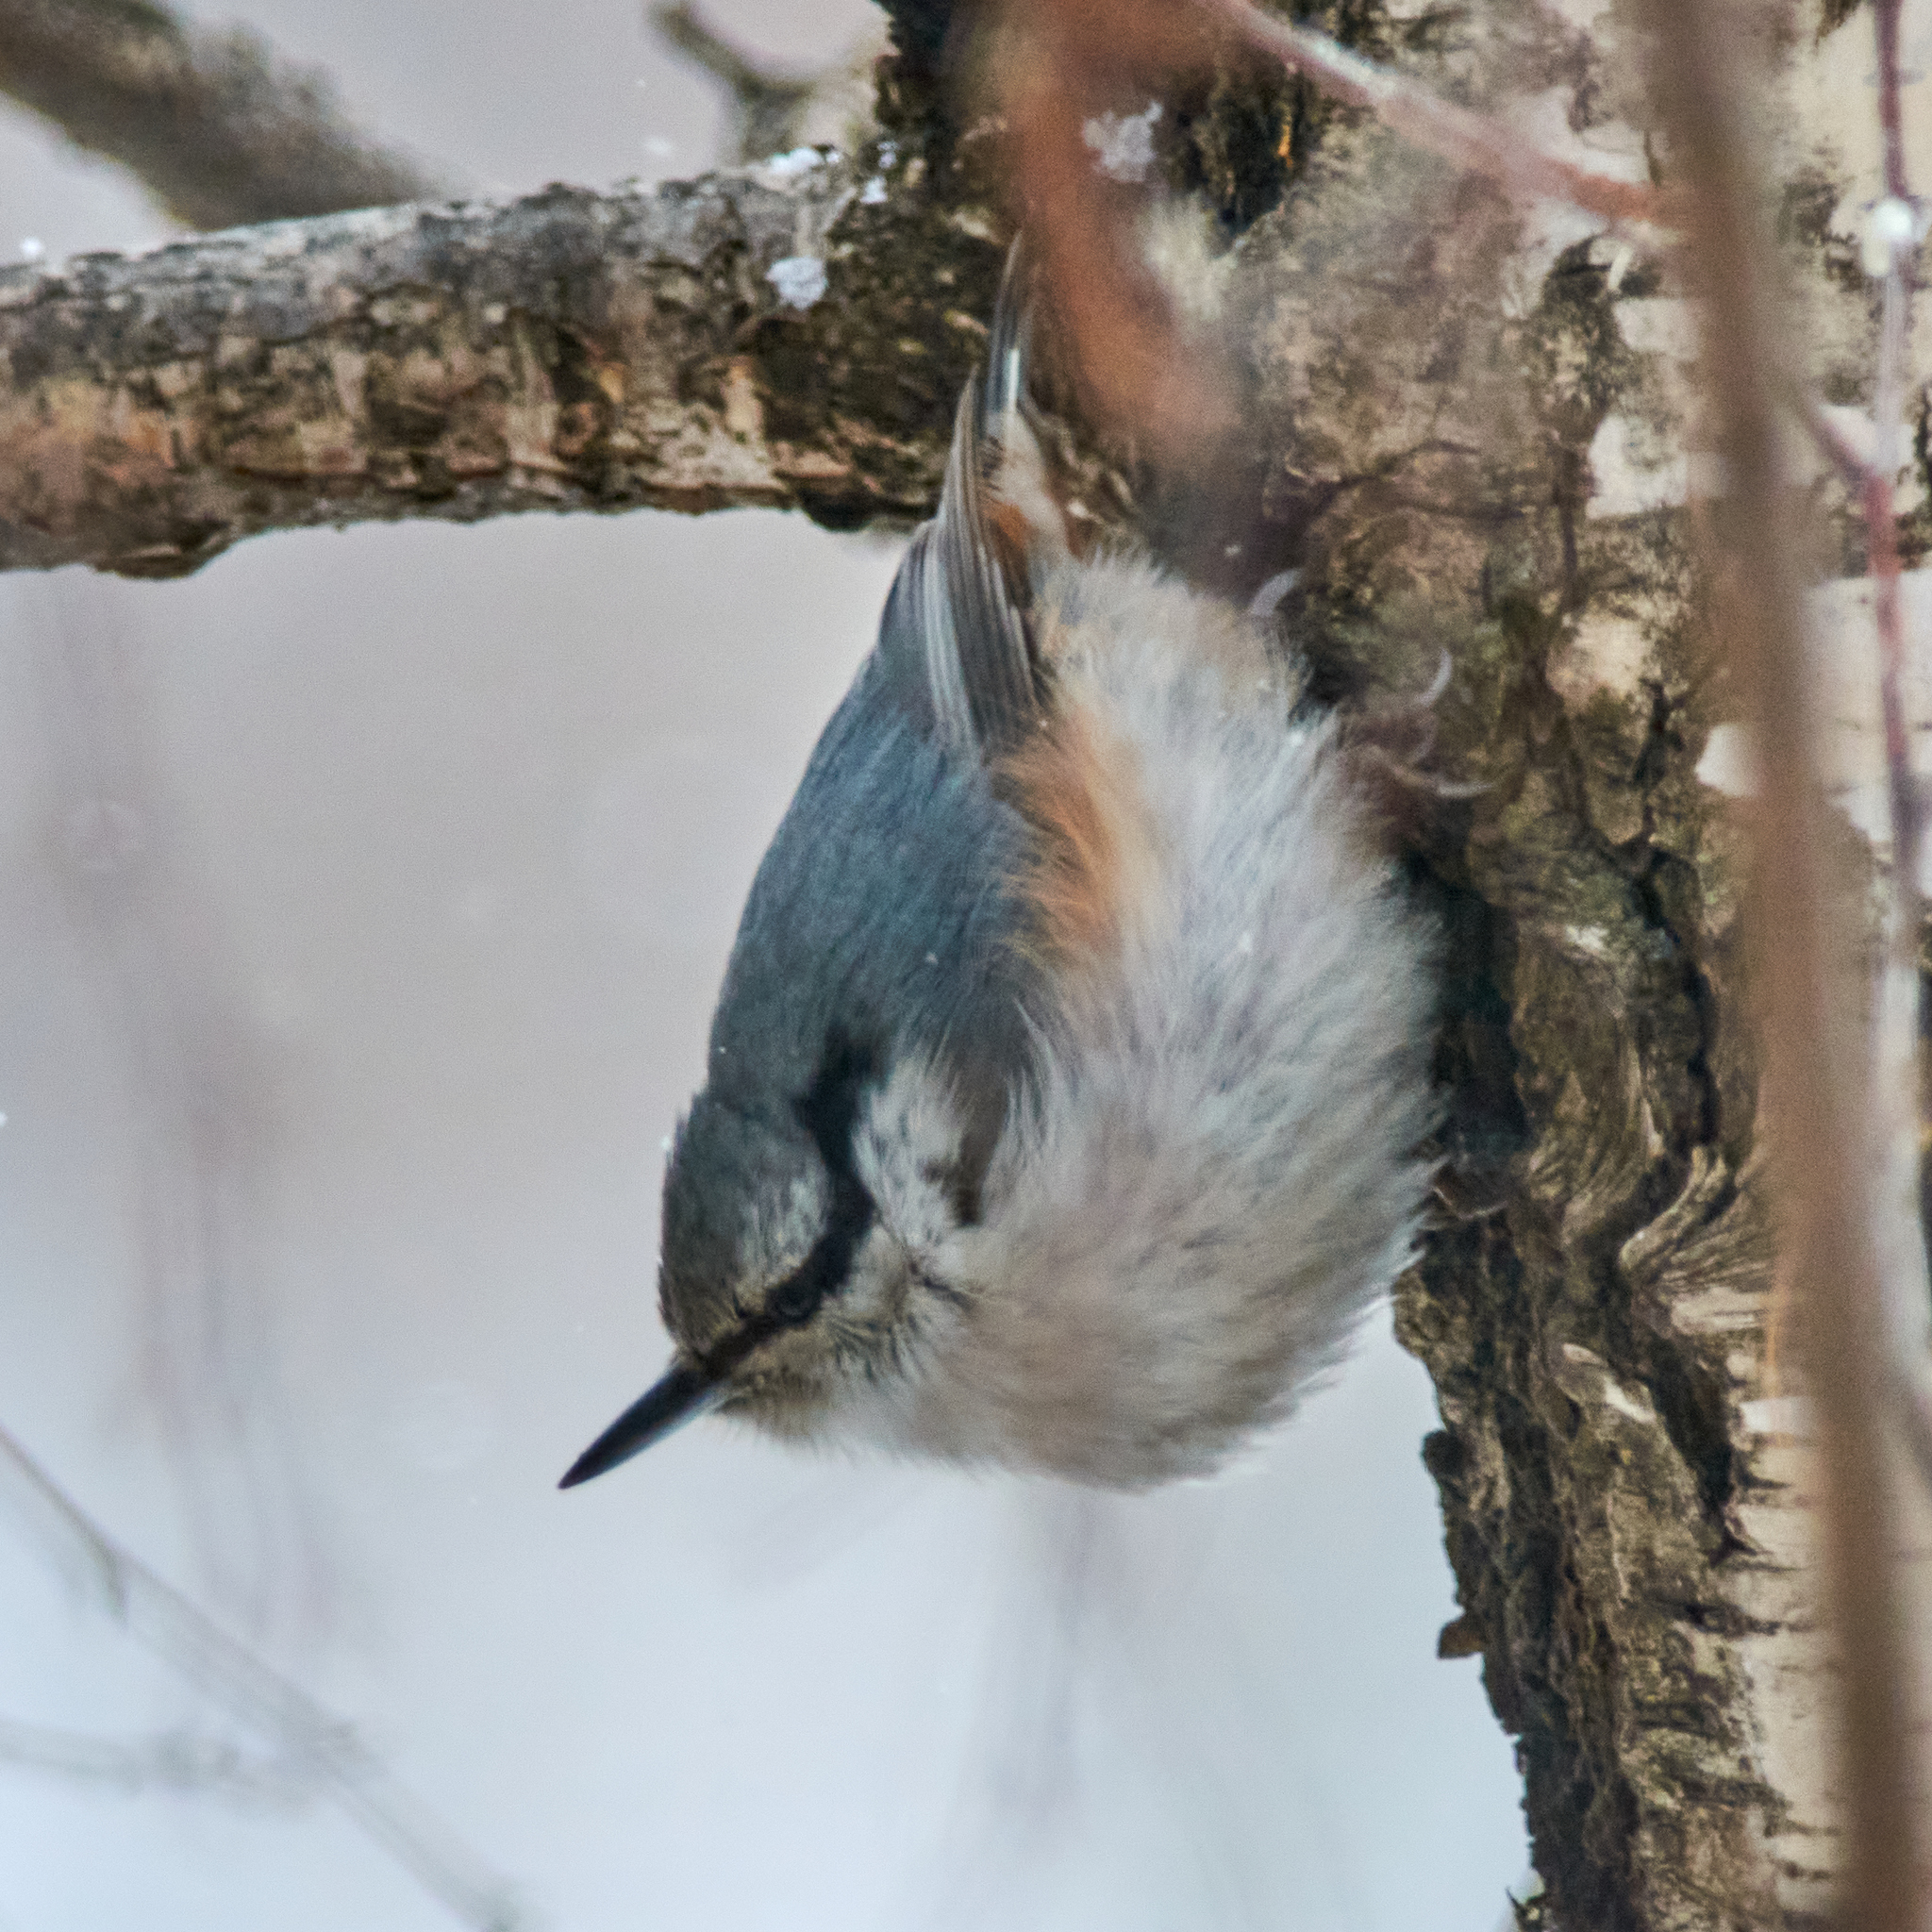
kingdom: Animalia
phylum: Chordata
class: Aves
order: Passeriformes
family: Sittidae
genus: Sitta
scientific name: Sitta europaea
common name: Eurasian nuthatch
